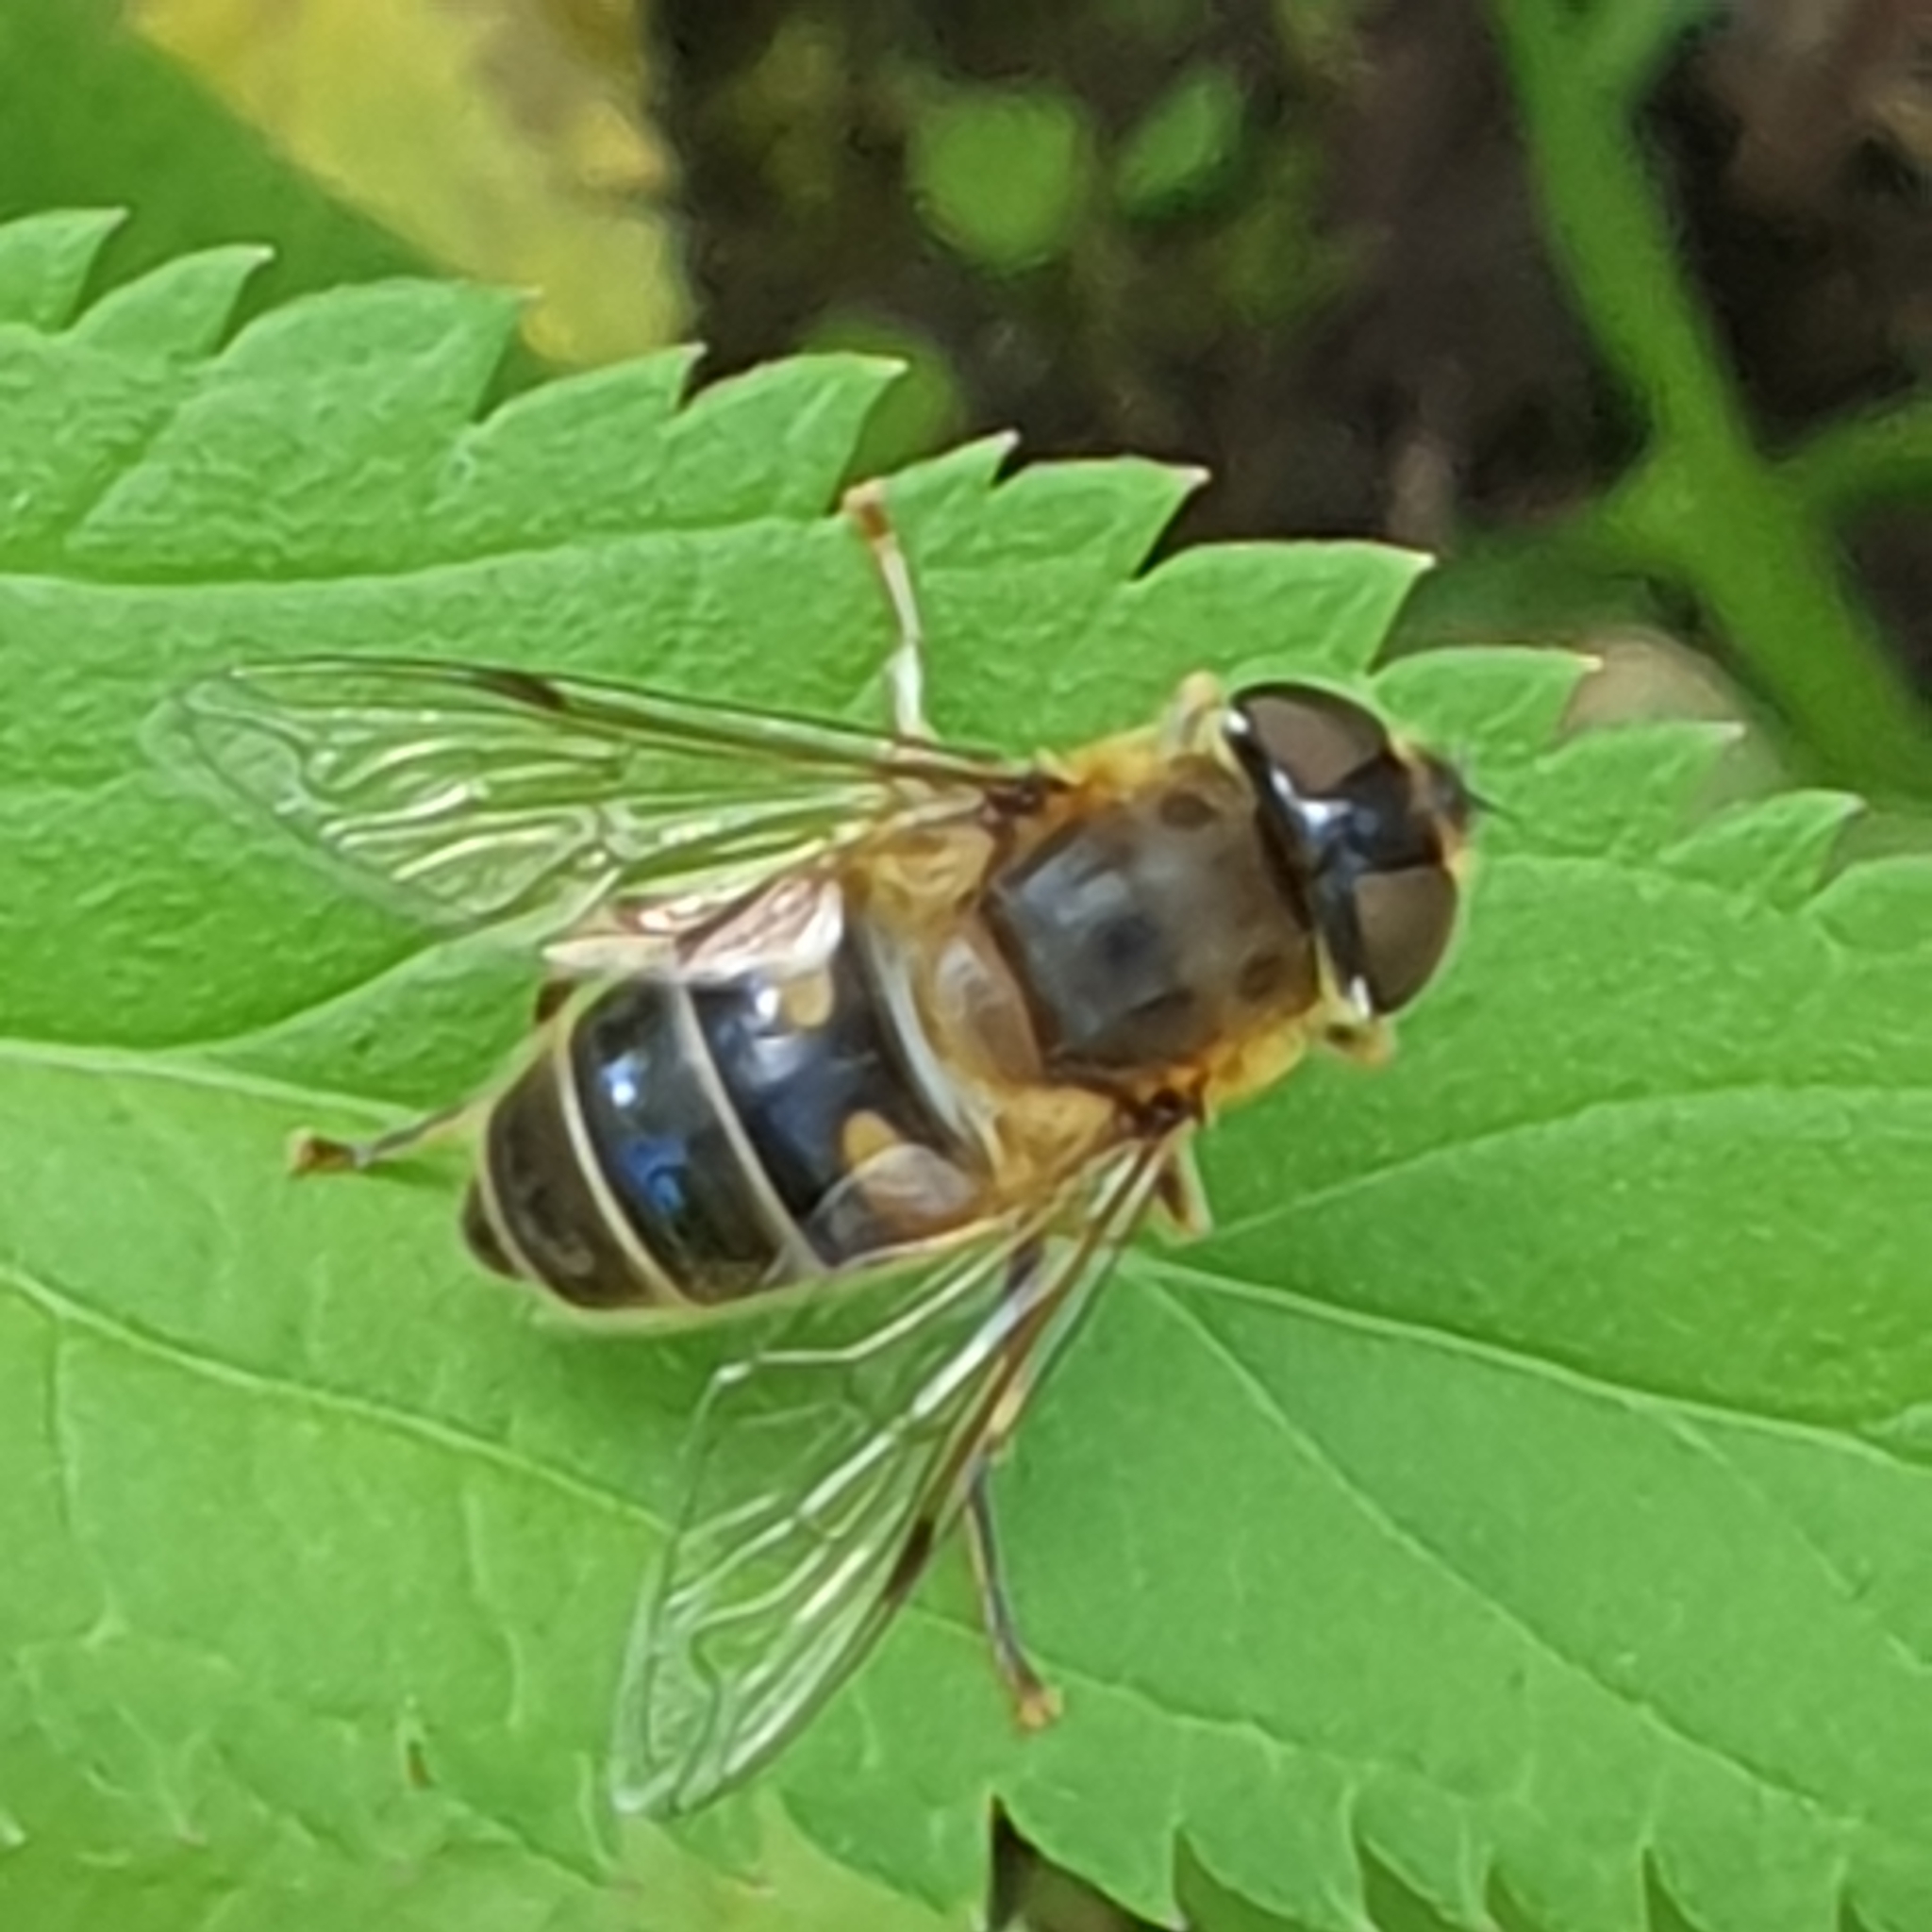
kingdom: Animalia
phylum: Arthropoda
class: Insecta
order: Diptera
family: Syrphidae
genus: Eristalis
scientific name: Eristalis pertinax
